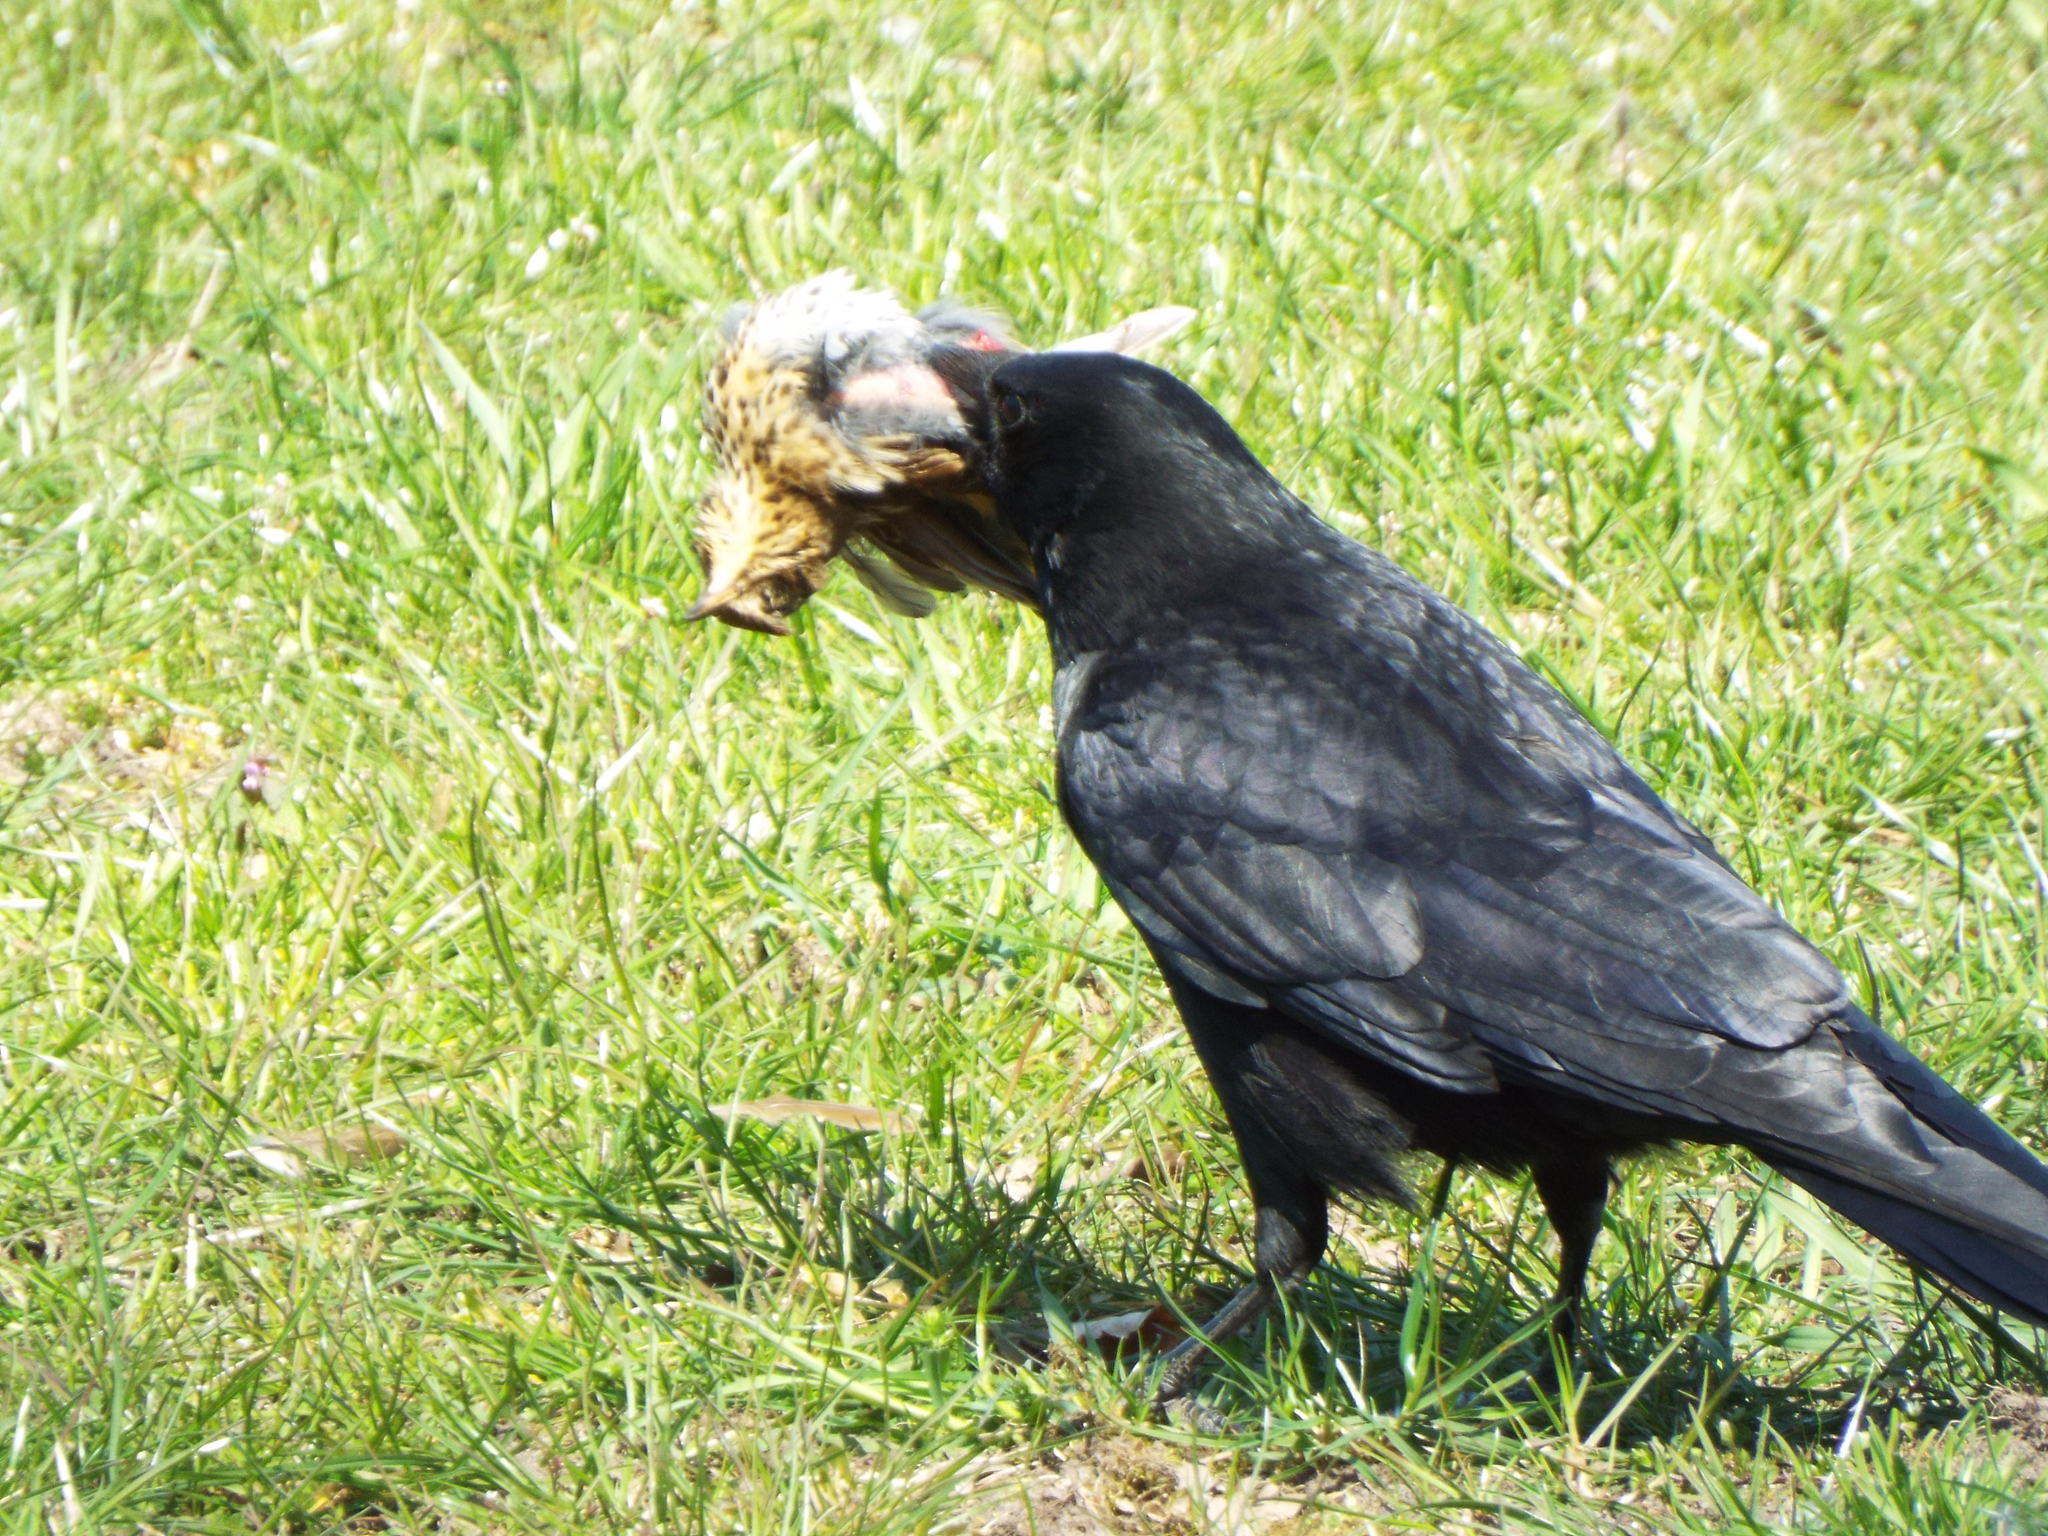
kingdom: Animalia
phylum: Chordata
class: Aves
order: Passeriformes
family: Turdidae
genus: Turdus
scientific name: Turdus philomelos
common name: Song thrush
